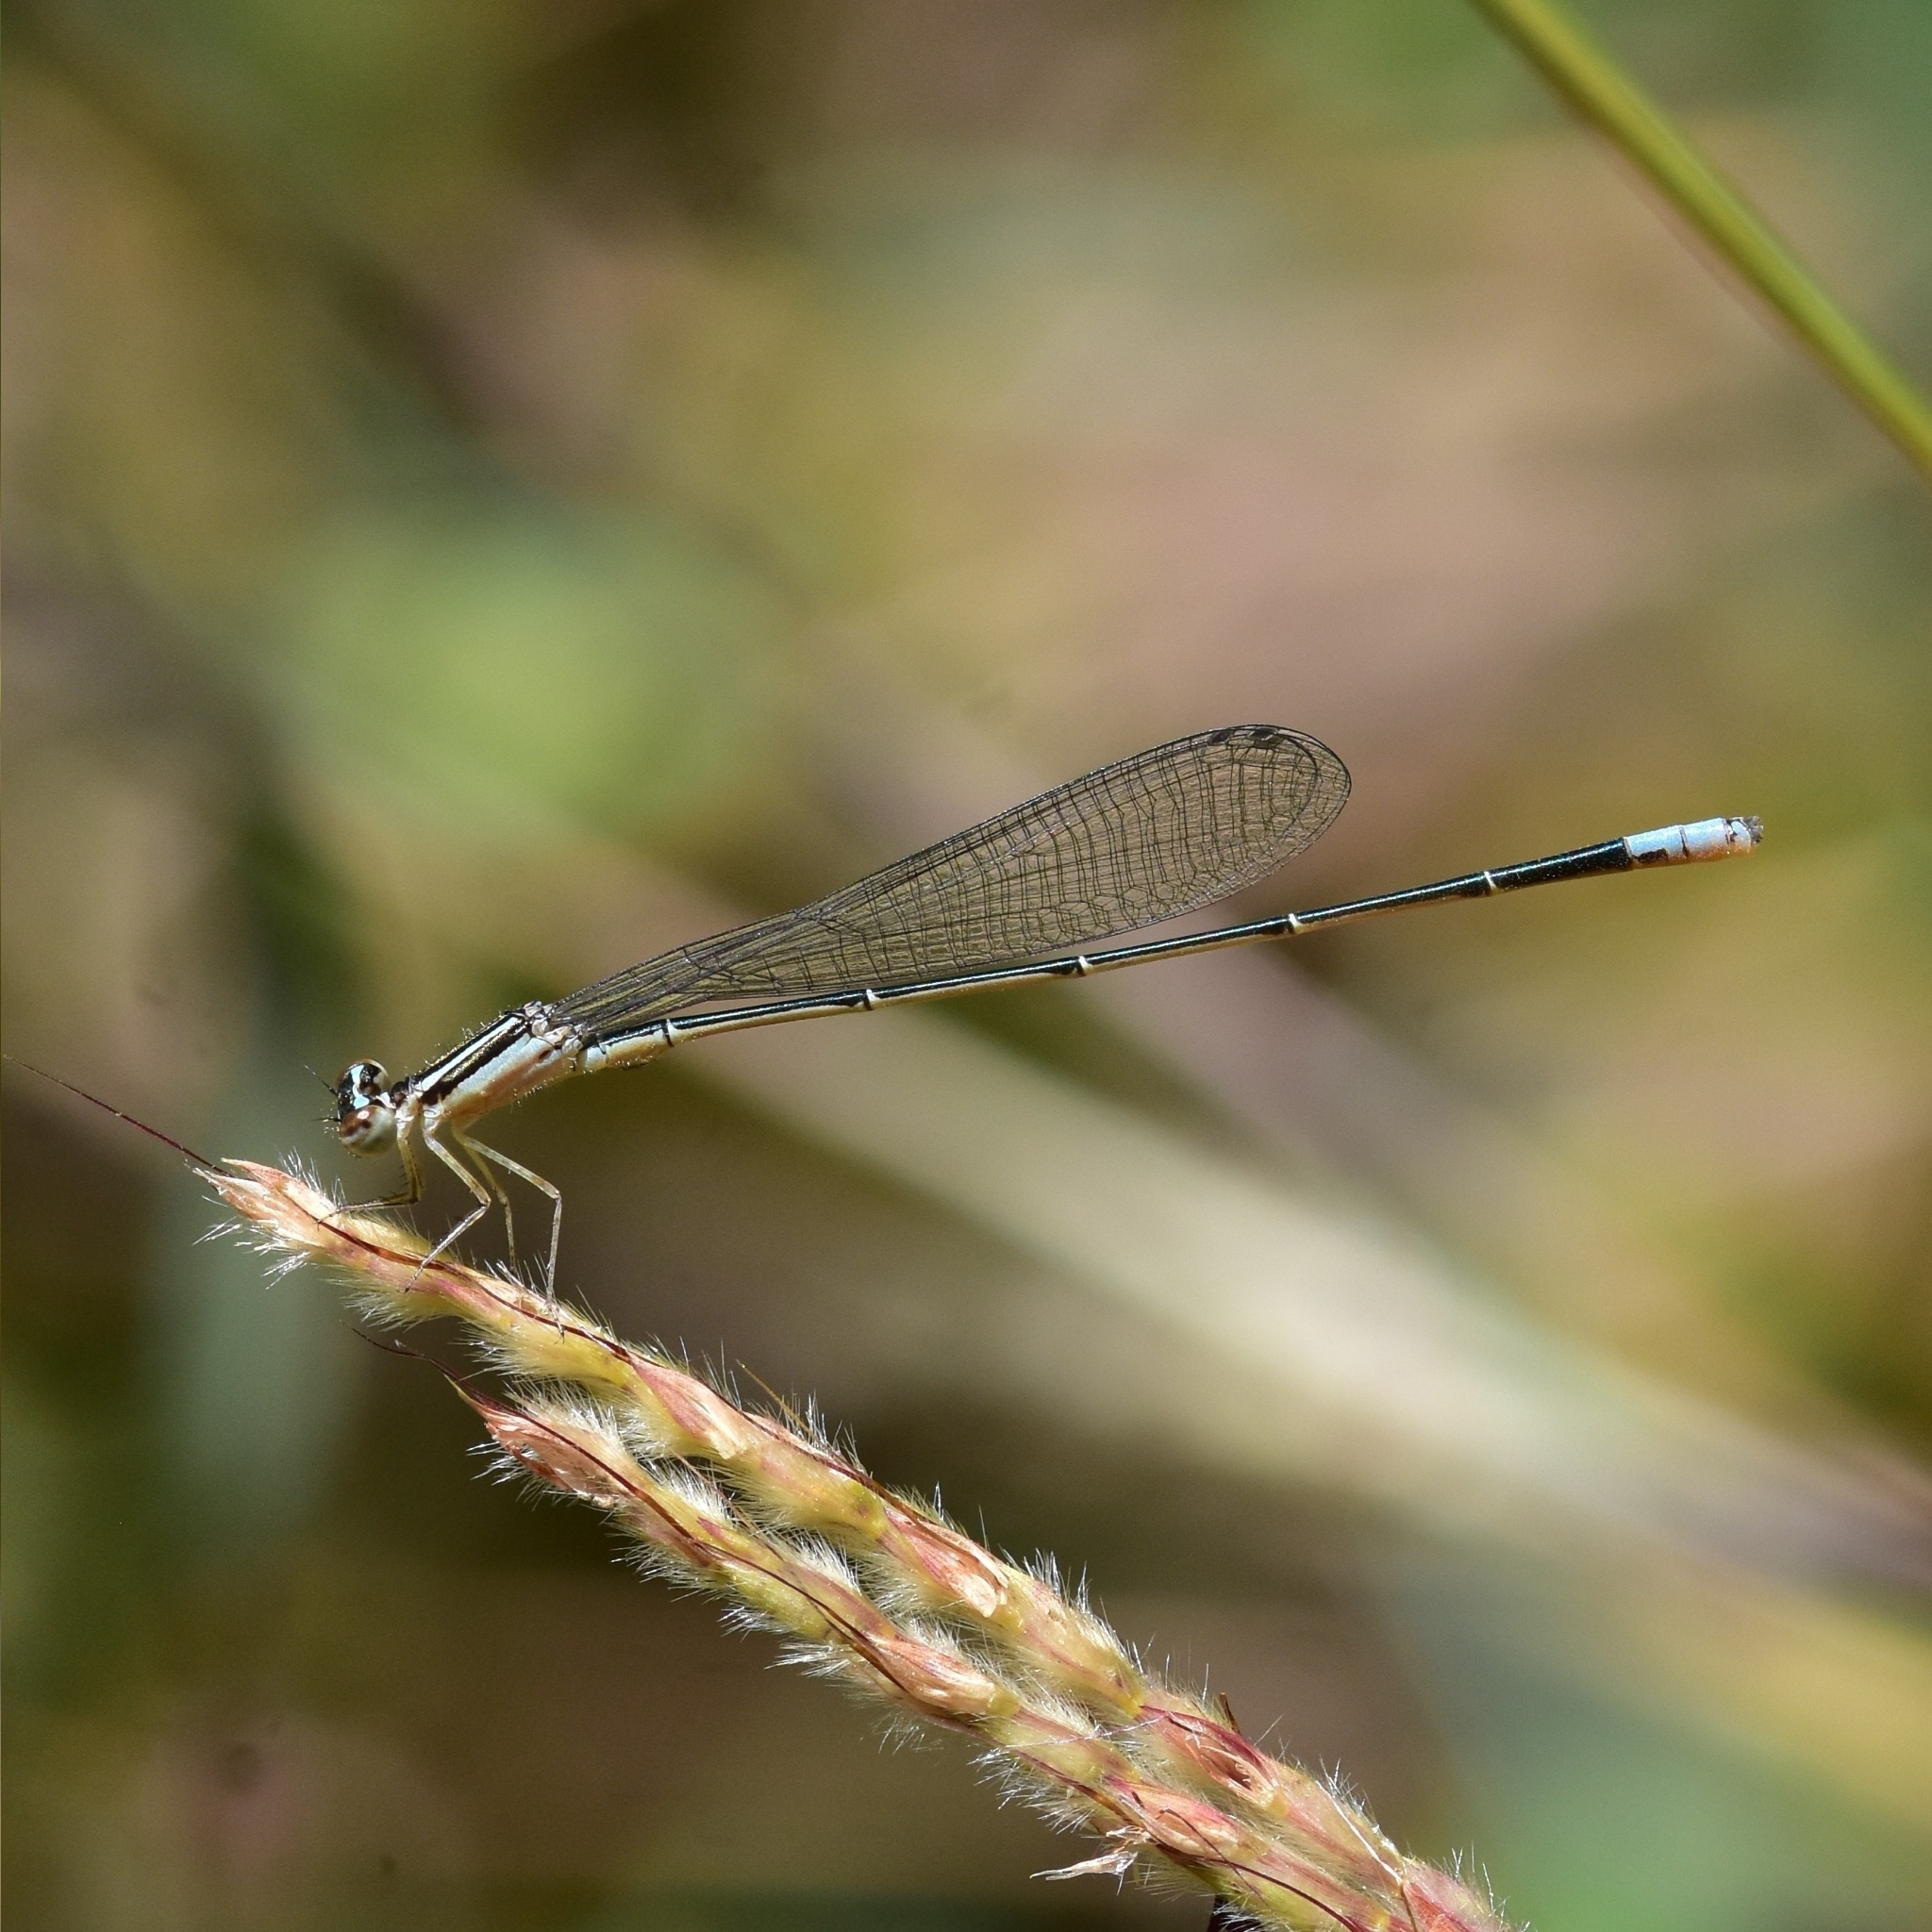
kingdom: Animalia
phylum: Arthropoda
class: Insecta
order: Odonata
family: Coenagrionidae
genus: Aciagrion
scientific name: Aciagrion occidentale
